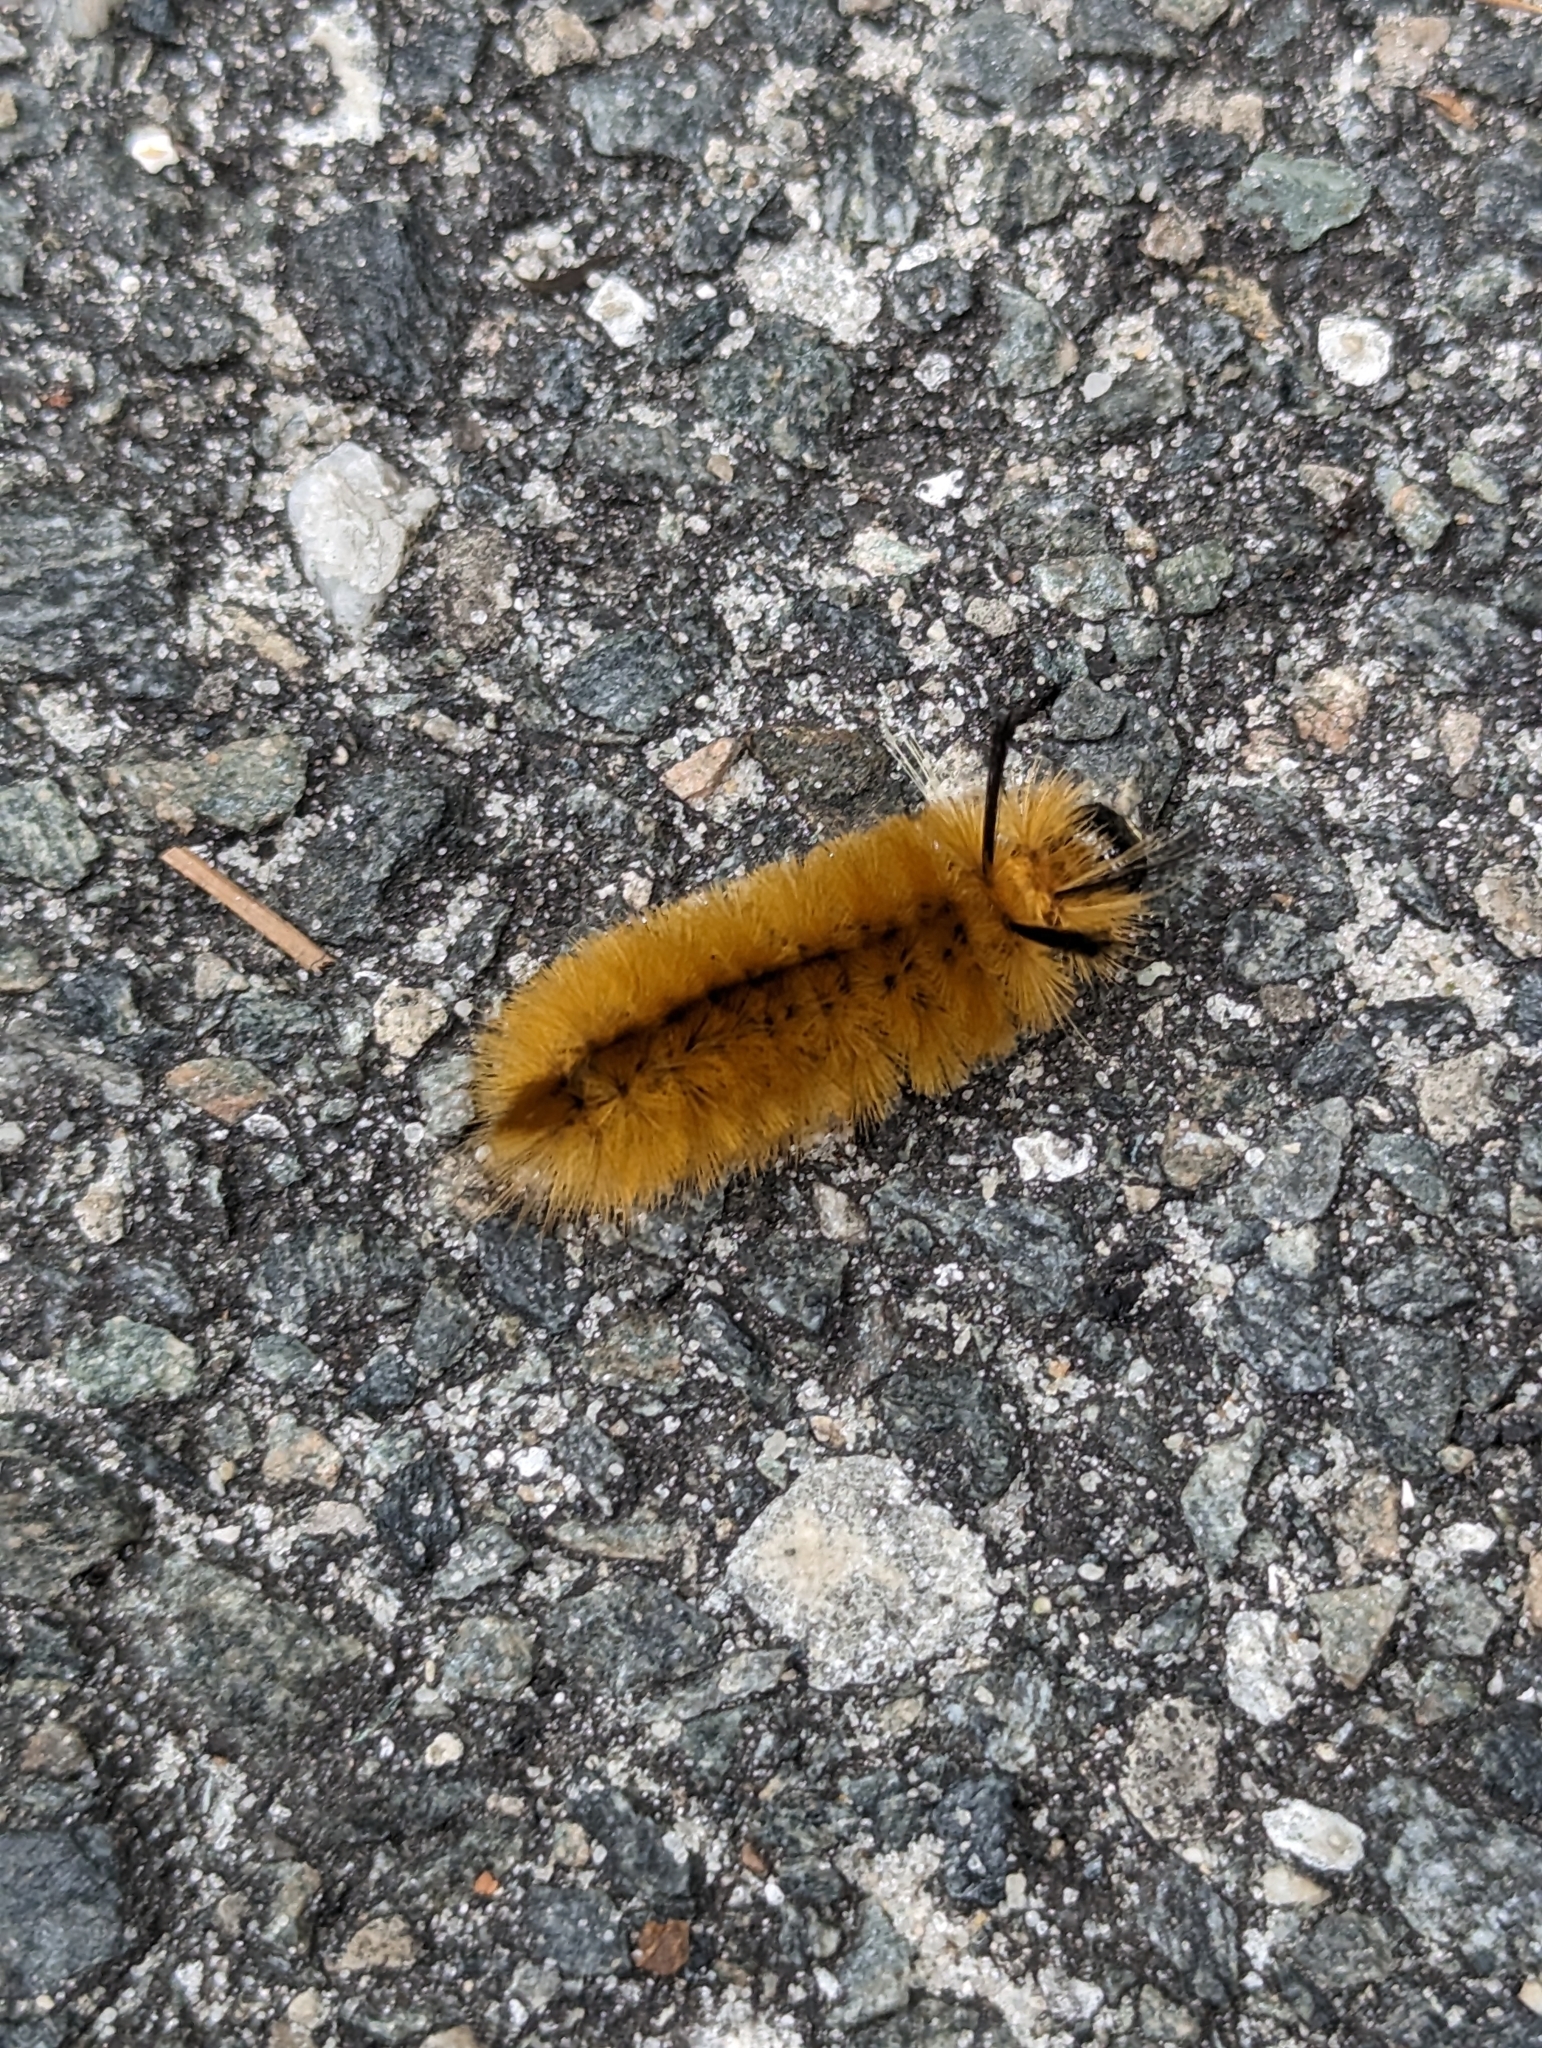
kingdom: Animalia
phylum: Arthropoda
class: Insecta
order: Lepidoptera
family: Erebidae
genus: Halysidota
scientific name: Halysidota tessellaris
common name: Banded tussock moth
